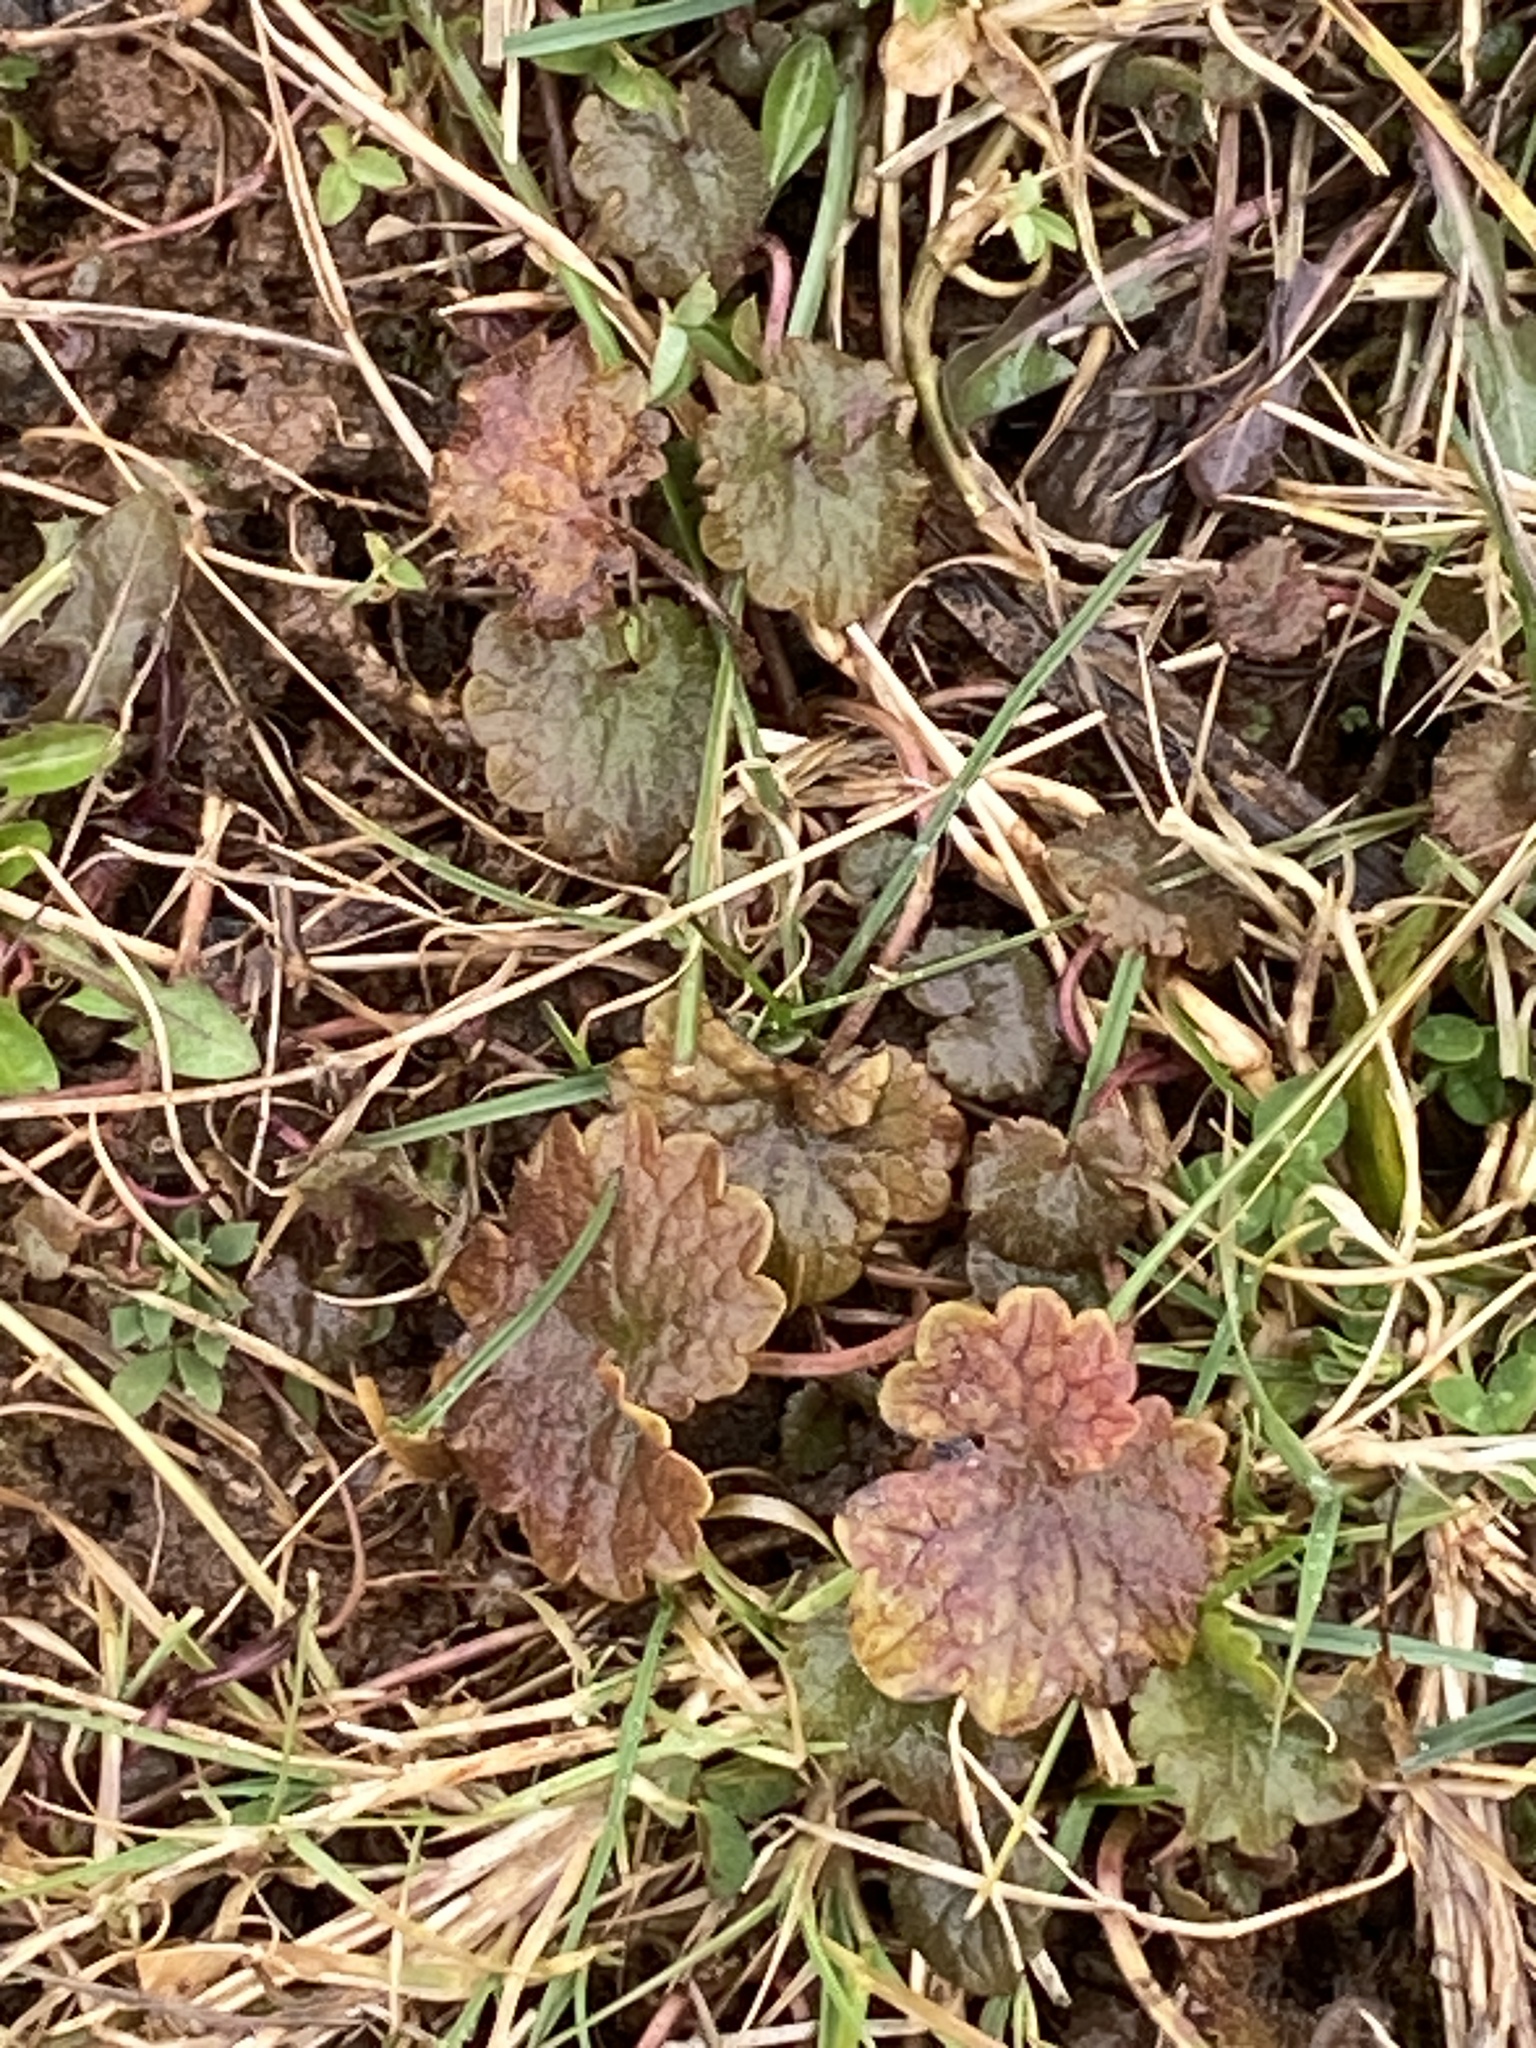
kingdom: Plantae
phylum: Tracheophyta
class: Magnoliopsida
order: Lamiales
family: Lamiaceae
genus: Glechoma
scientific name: Glechoma hederacea
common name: Ground ivy
